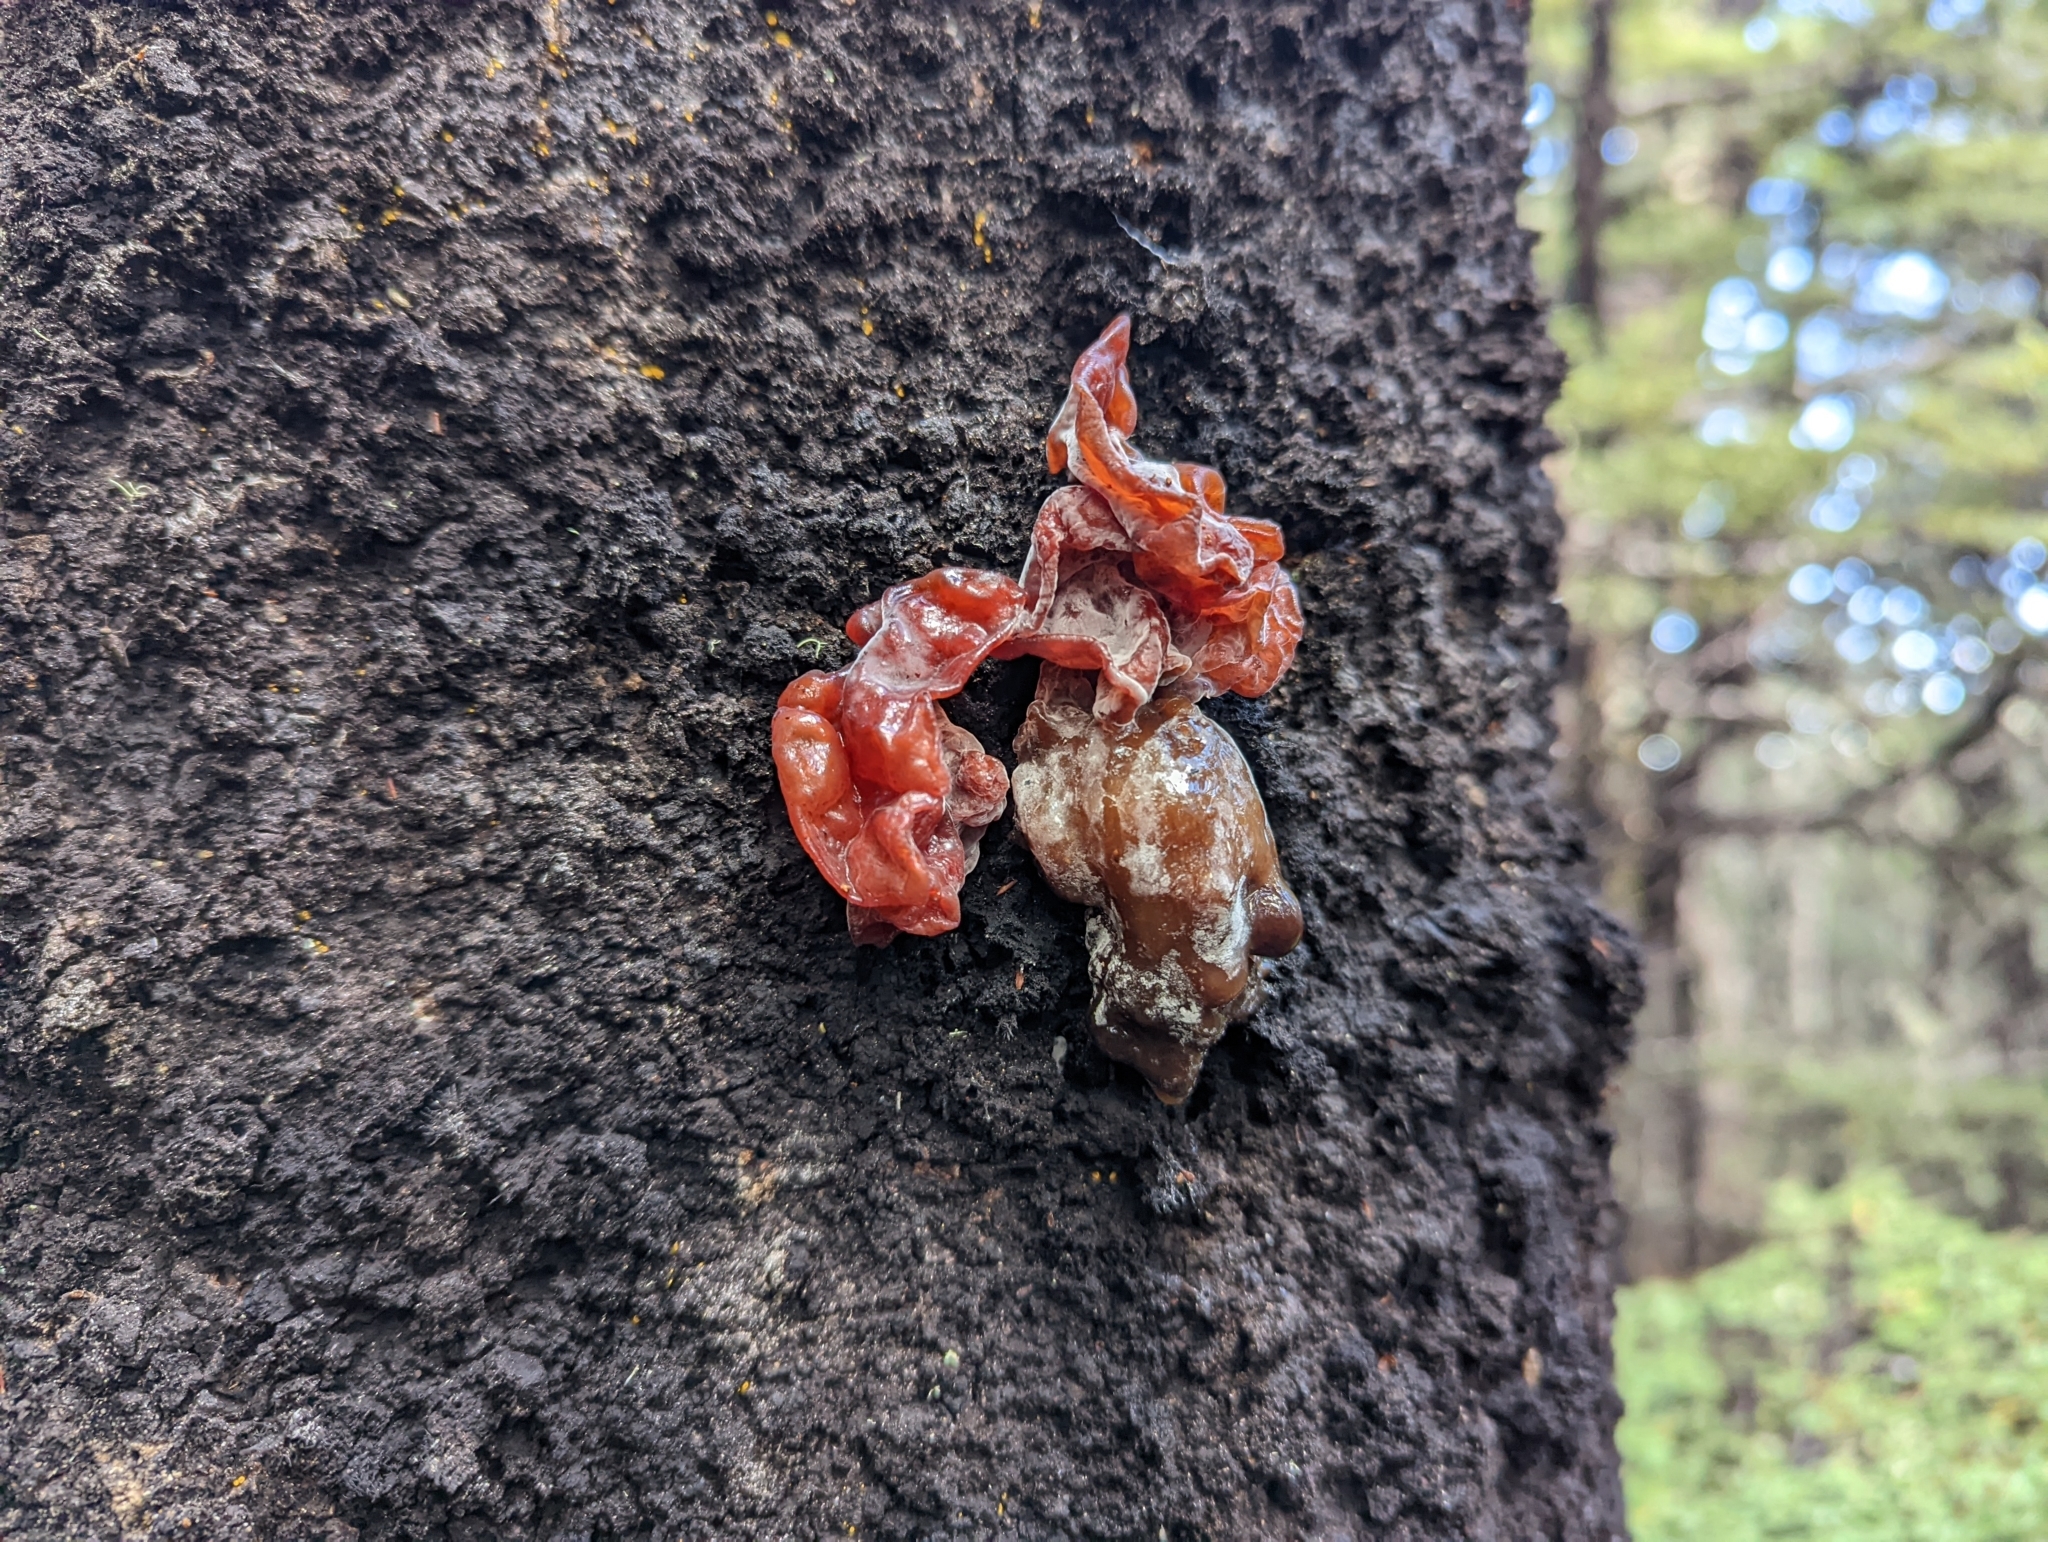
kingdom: Fungi
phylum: Basidiomycota
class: Agaricomycetes
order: Auriculariales
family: Auriculariaceae
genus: Auricularia
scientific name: Auricularia cornea
